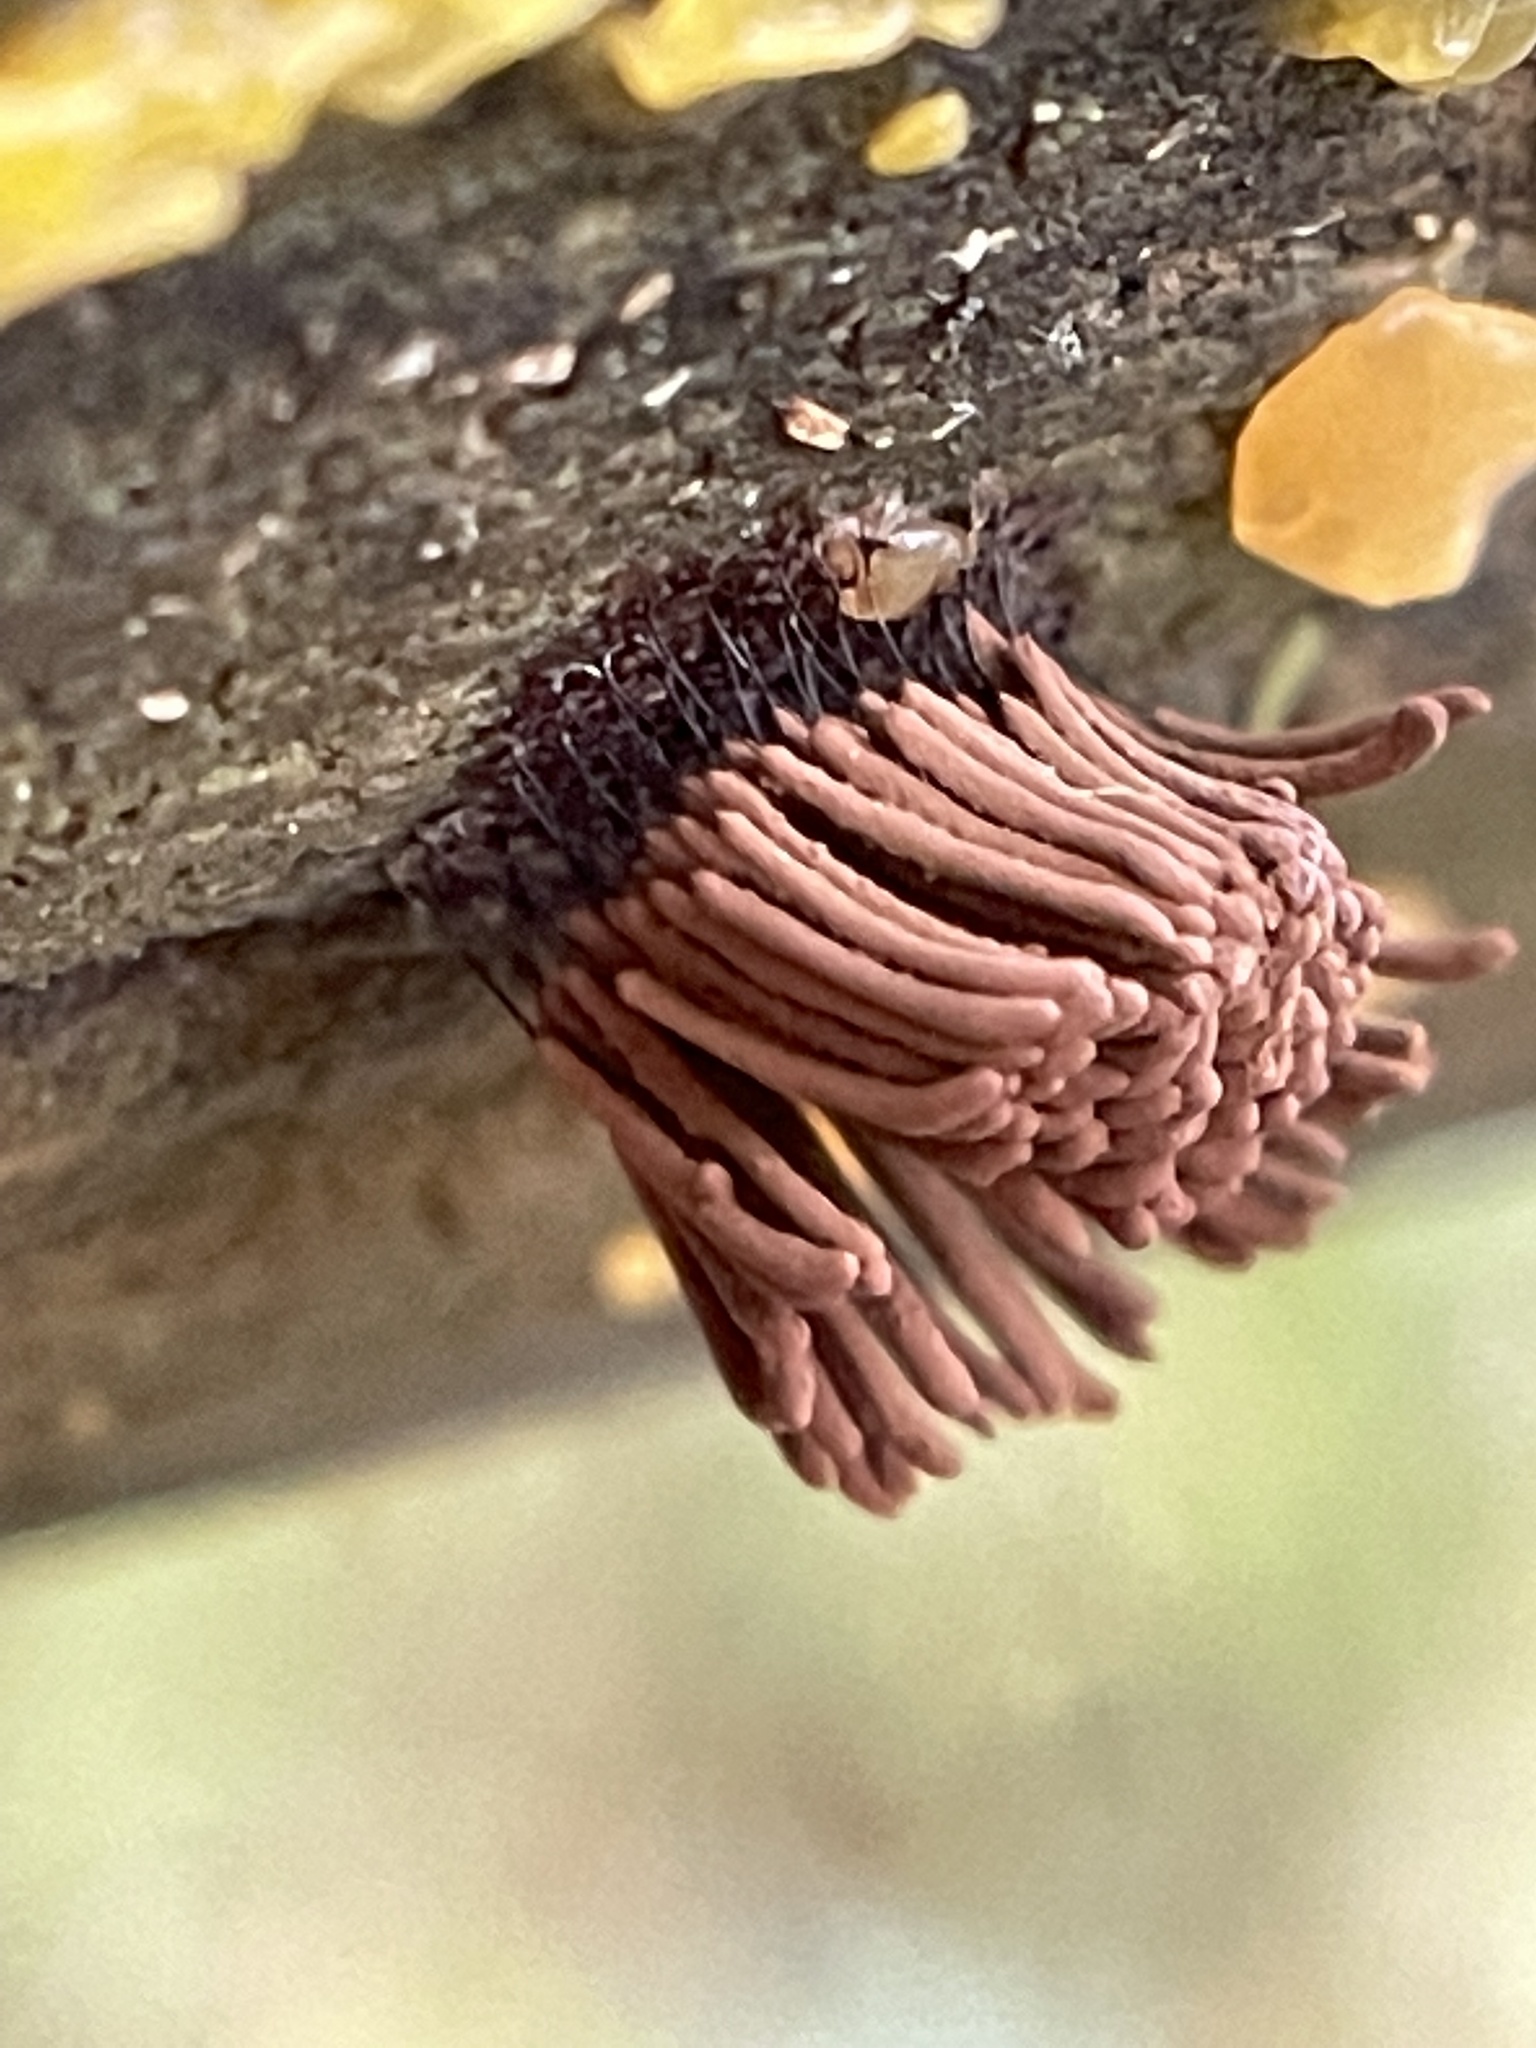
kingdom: Protozoa
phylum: Mycetozoa
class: Myxomycetes
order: Stemonitidales
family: Stemonitidaceae
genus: Stemonitis
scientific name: Stemonitis splendens
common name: Chocolate tube slime
